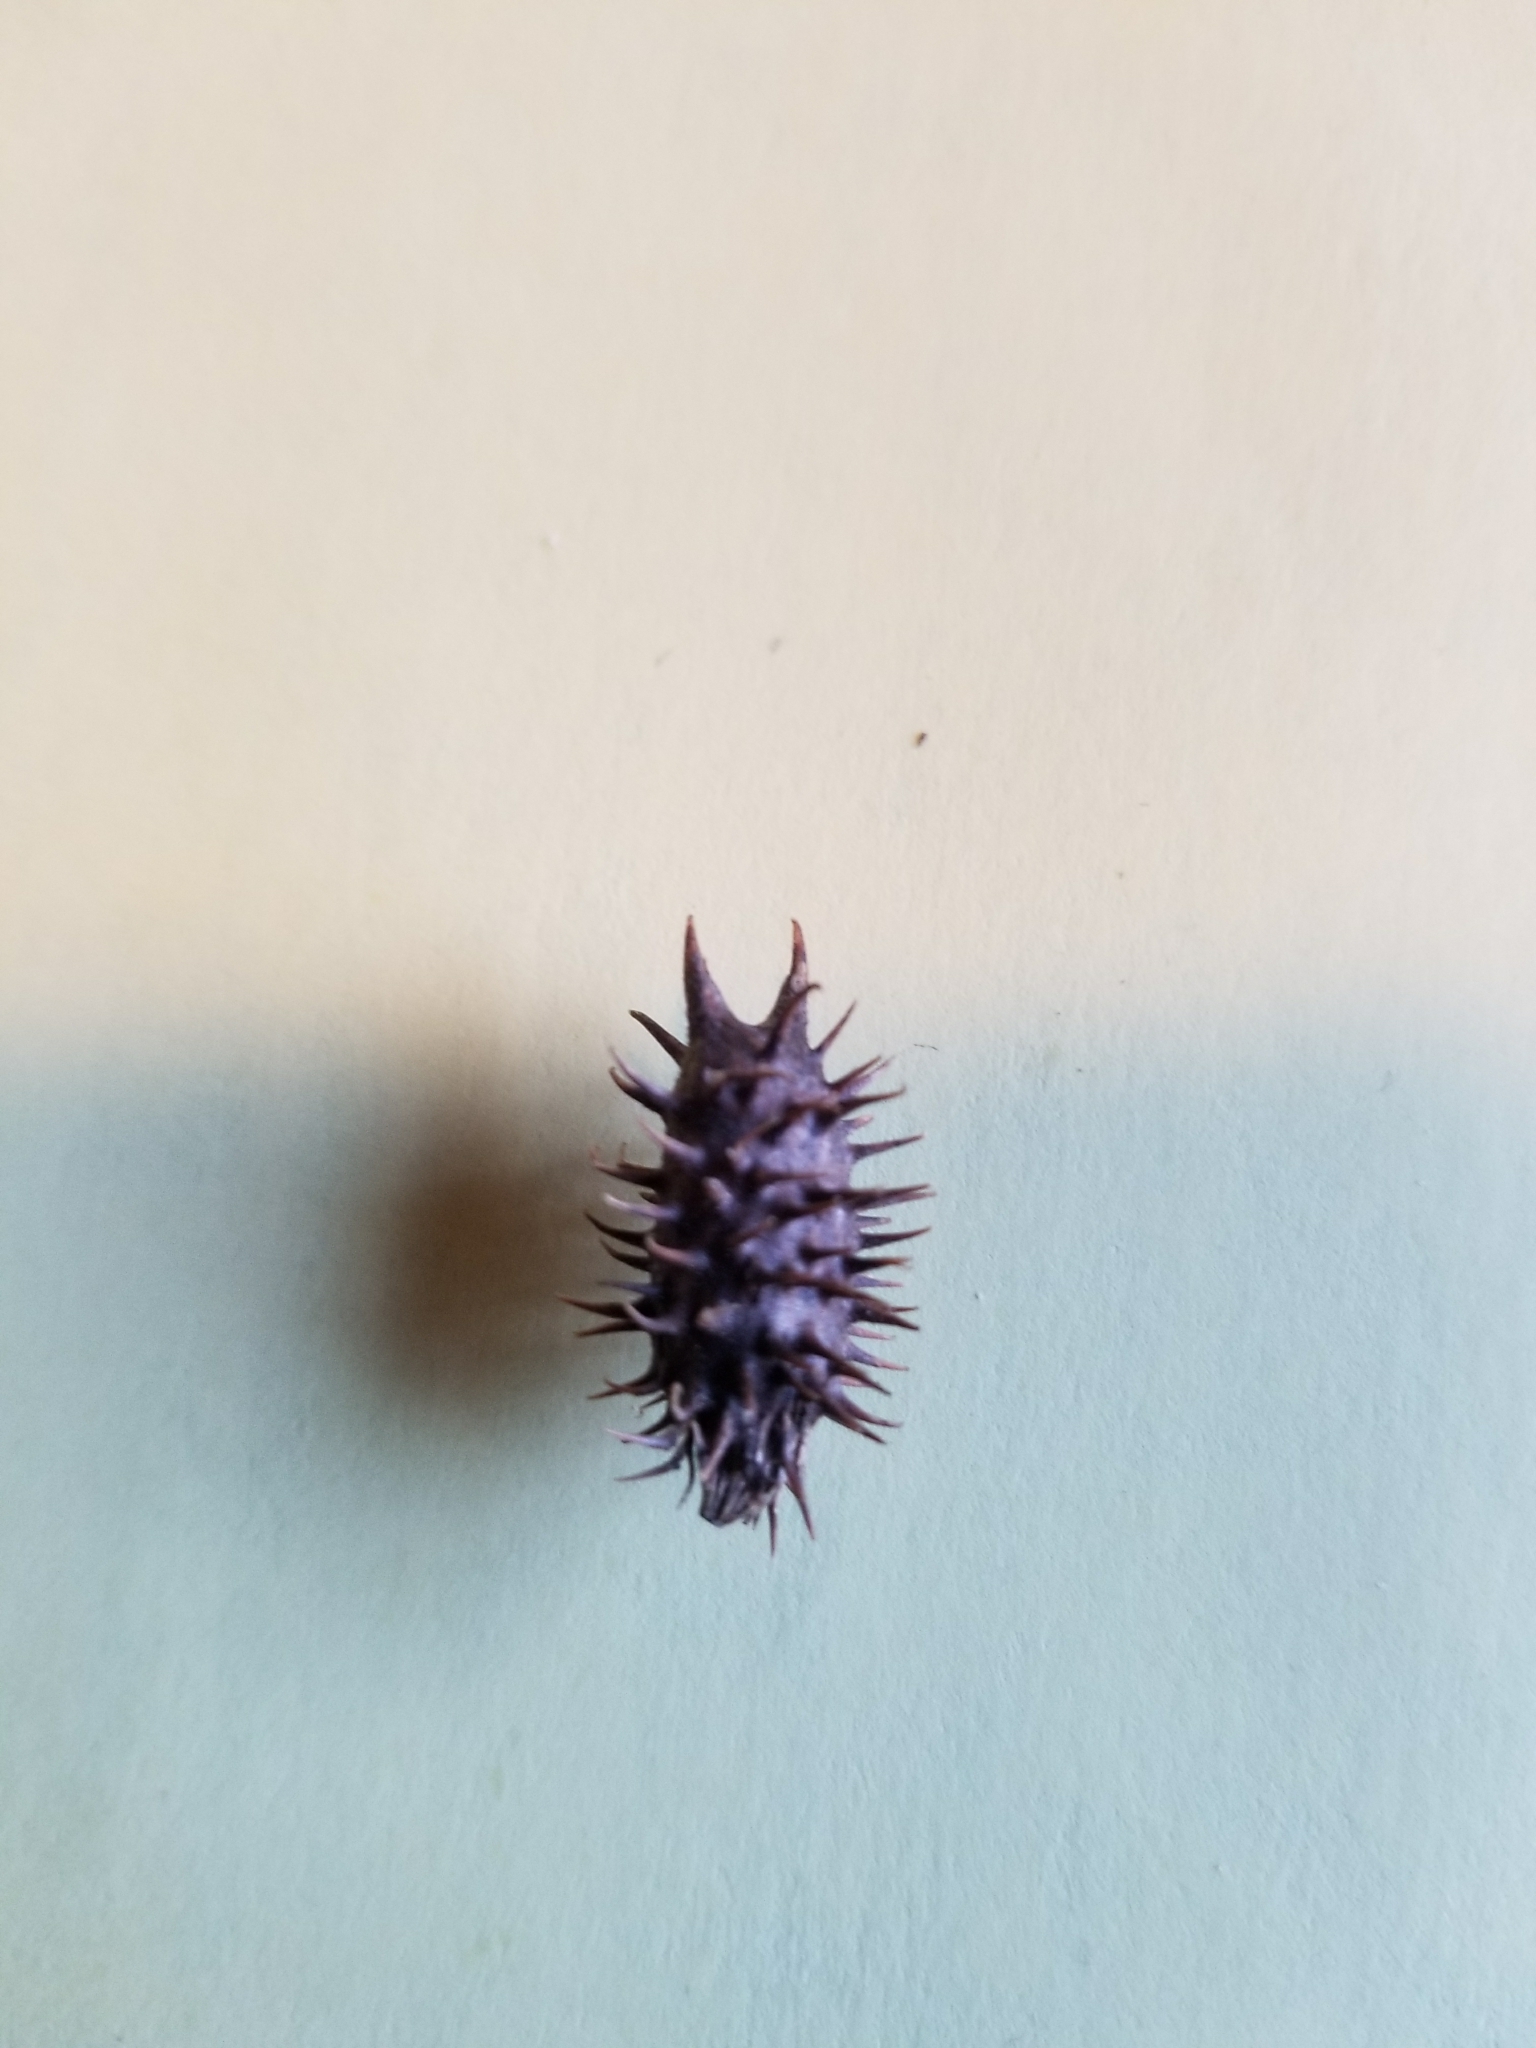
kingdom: Plantae
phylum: Tracheophyta
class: Magnoliopsida
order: Asterales
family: Asteraceae
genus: Xanthium
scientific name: Xanthium strumarium
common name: Rough cocklebur
